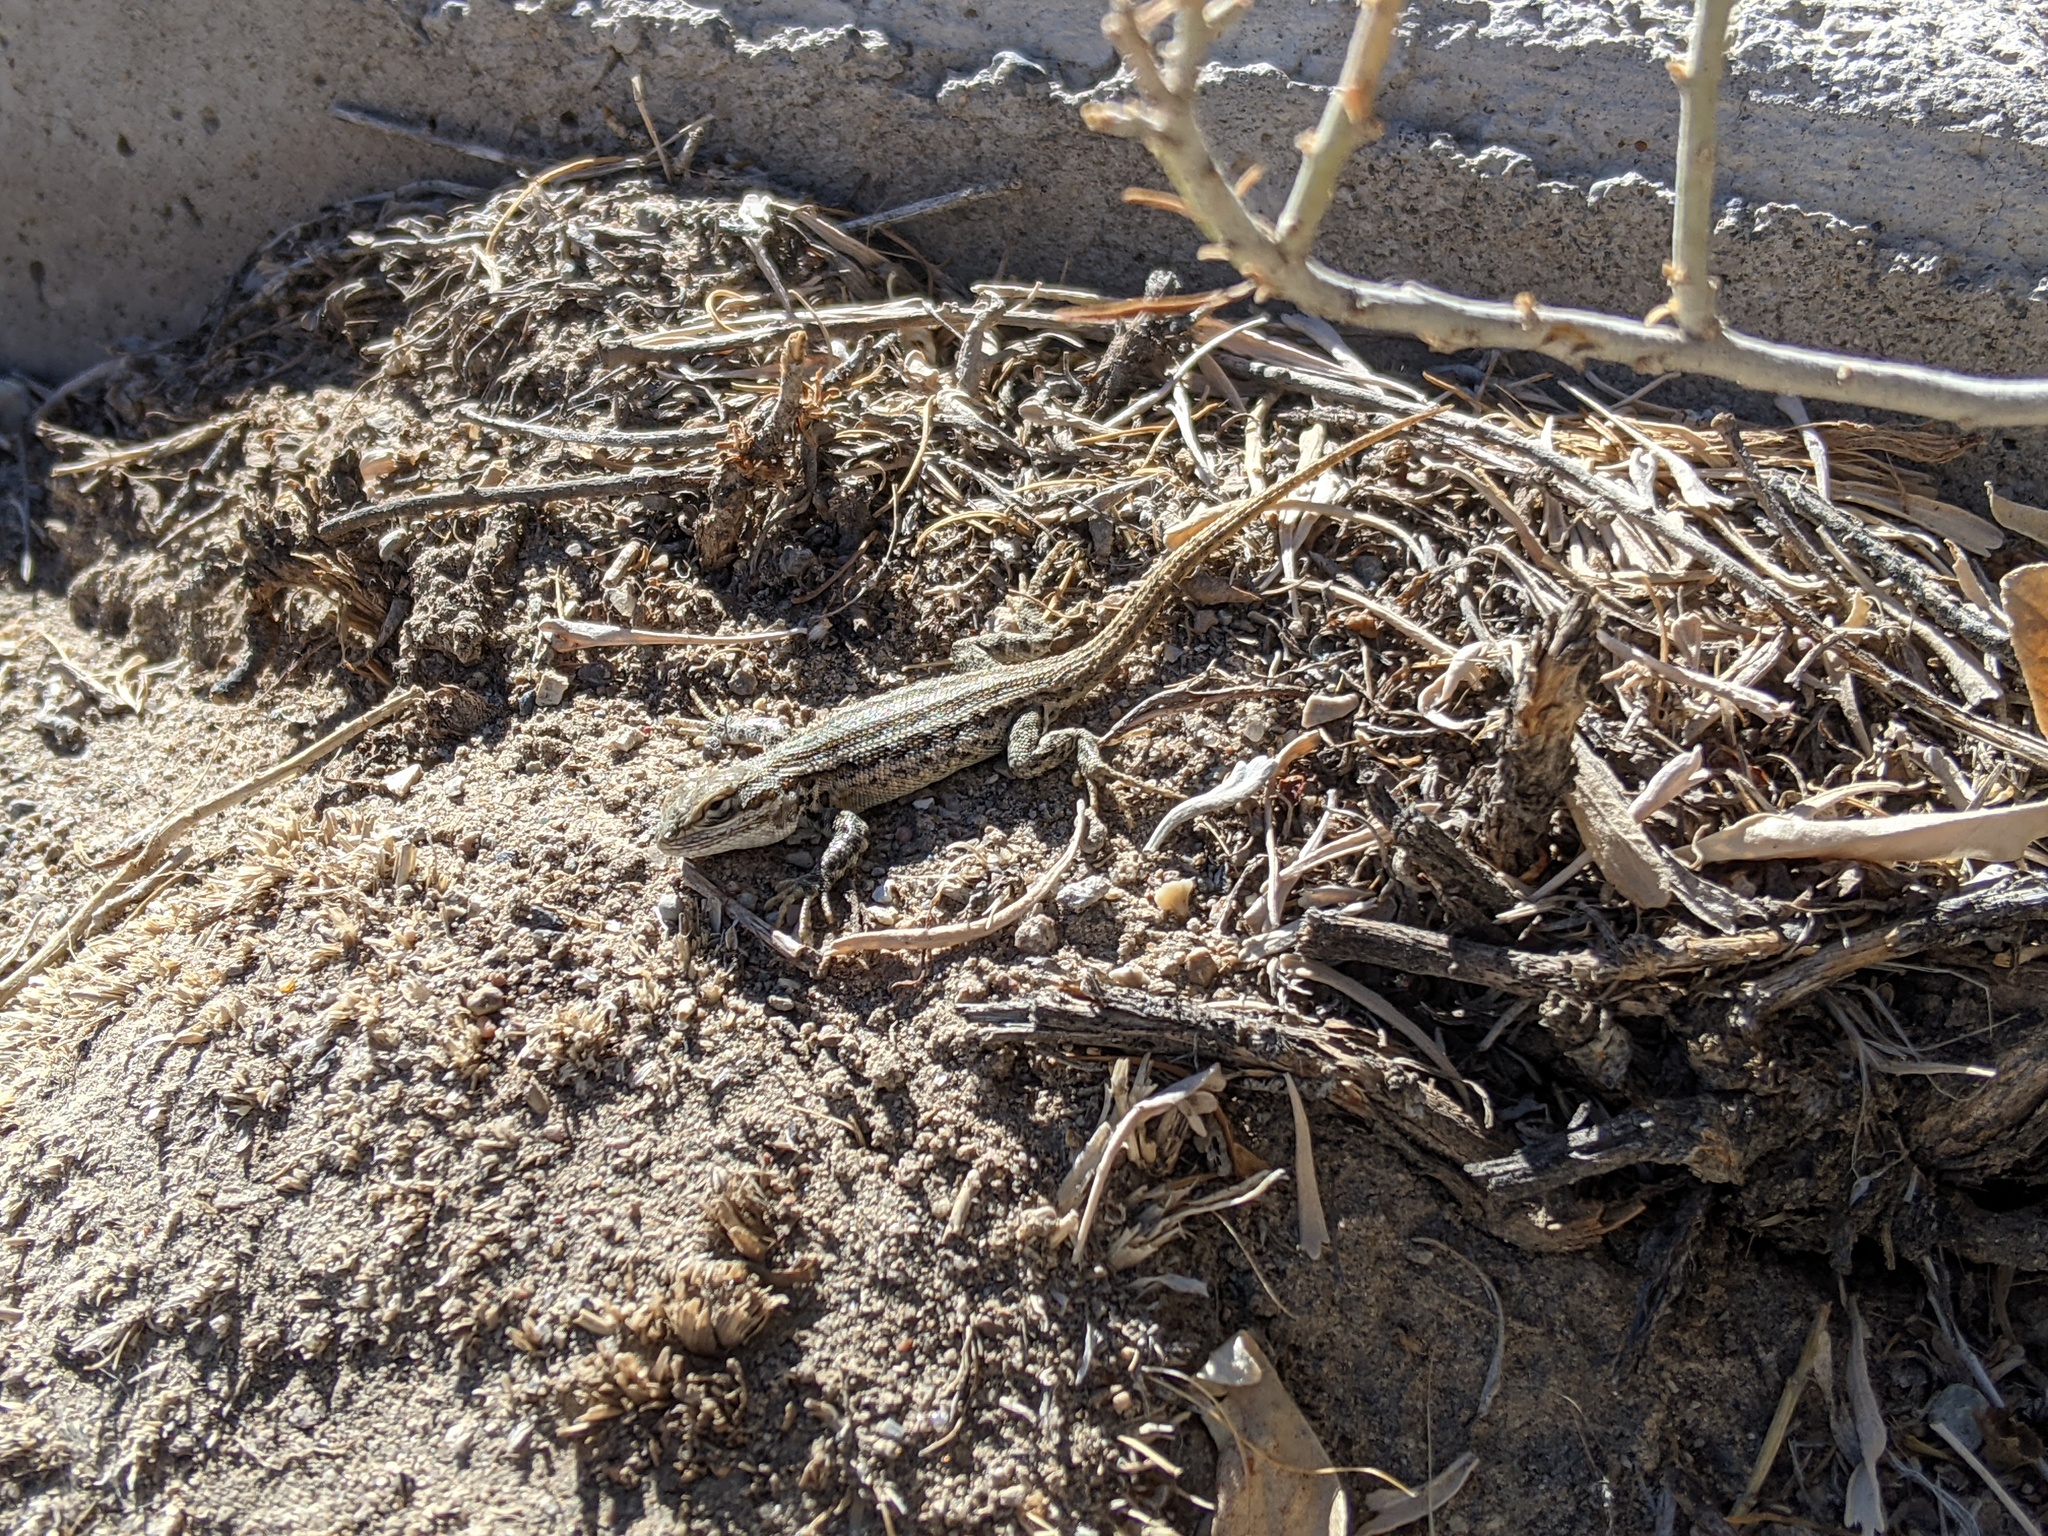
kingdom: Animalia
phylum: Chordata
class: Squamata
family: Phrynosomatidae
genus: Sceloporus
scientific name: Sceloporus graciosus
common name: Sagebrush lizard
